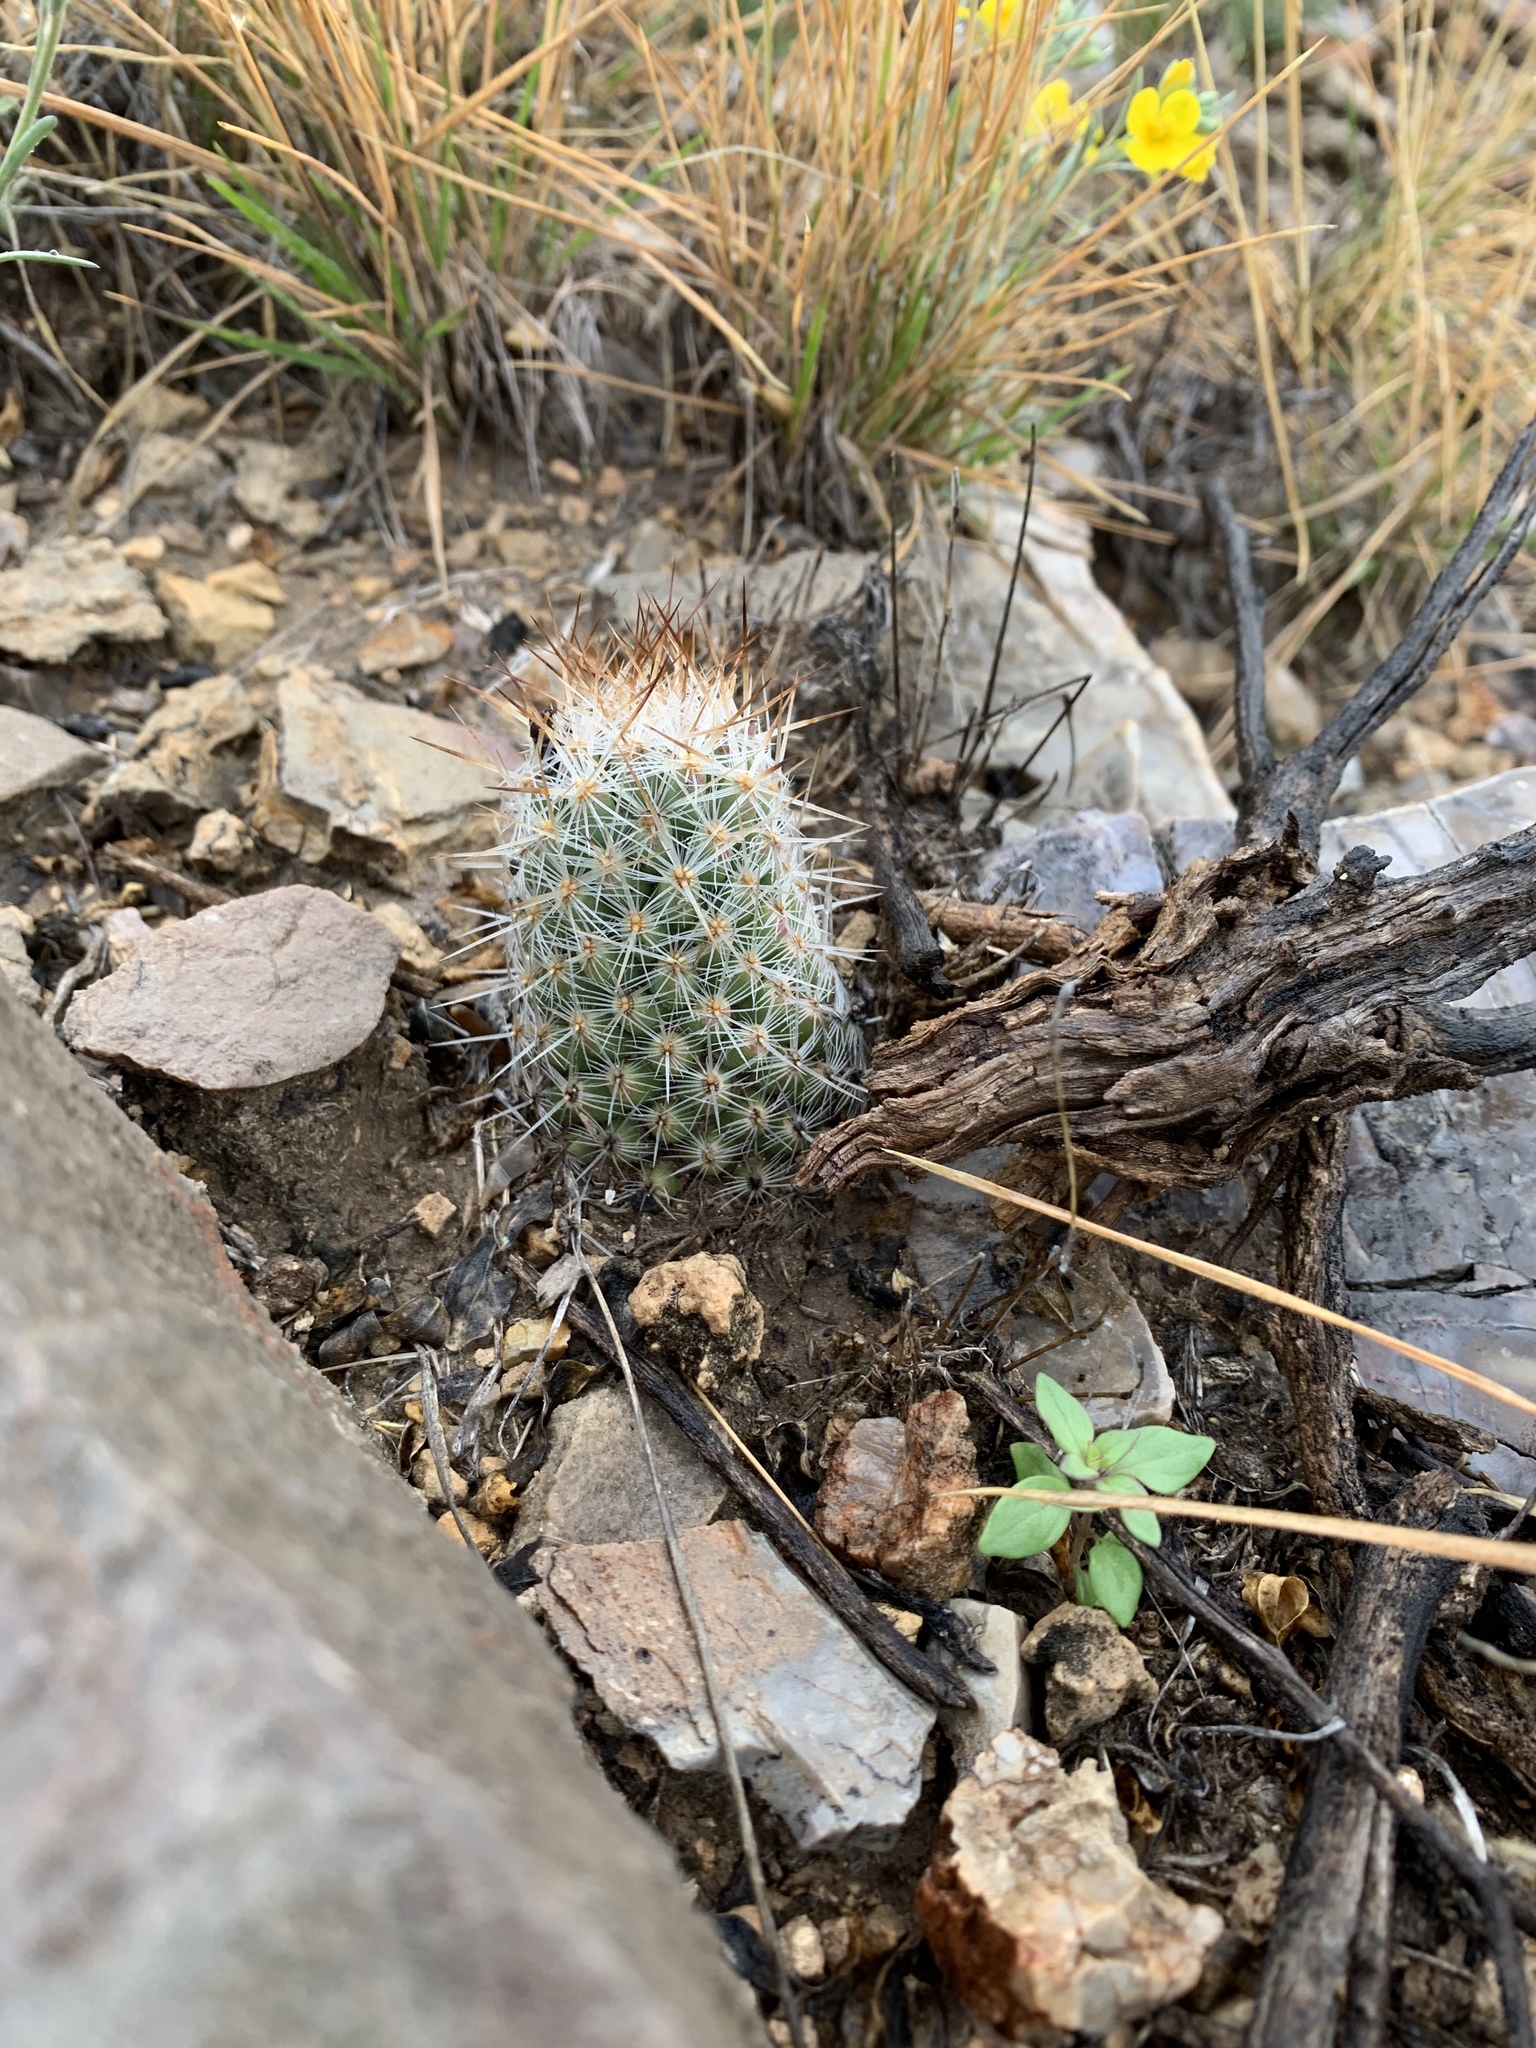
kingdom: Plantae
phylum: Tracheophyta
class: Magnoliopsida
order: Caryophyllales
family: Cactaceae
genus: Pelecyphora
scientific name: Pelecyphora tuberculosa
